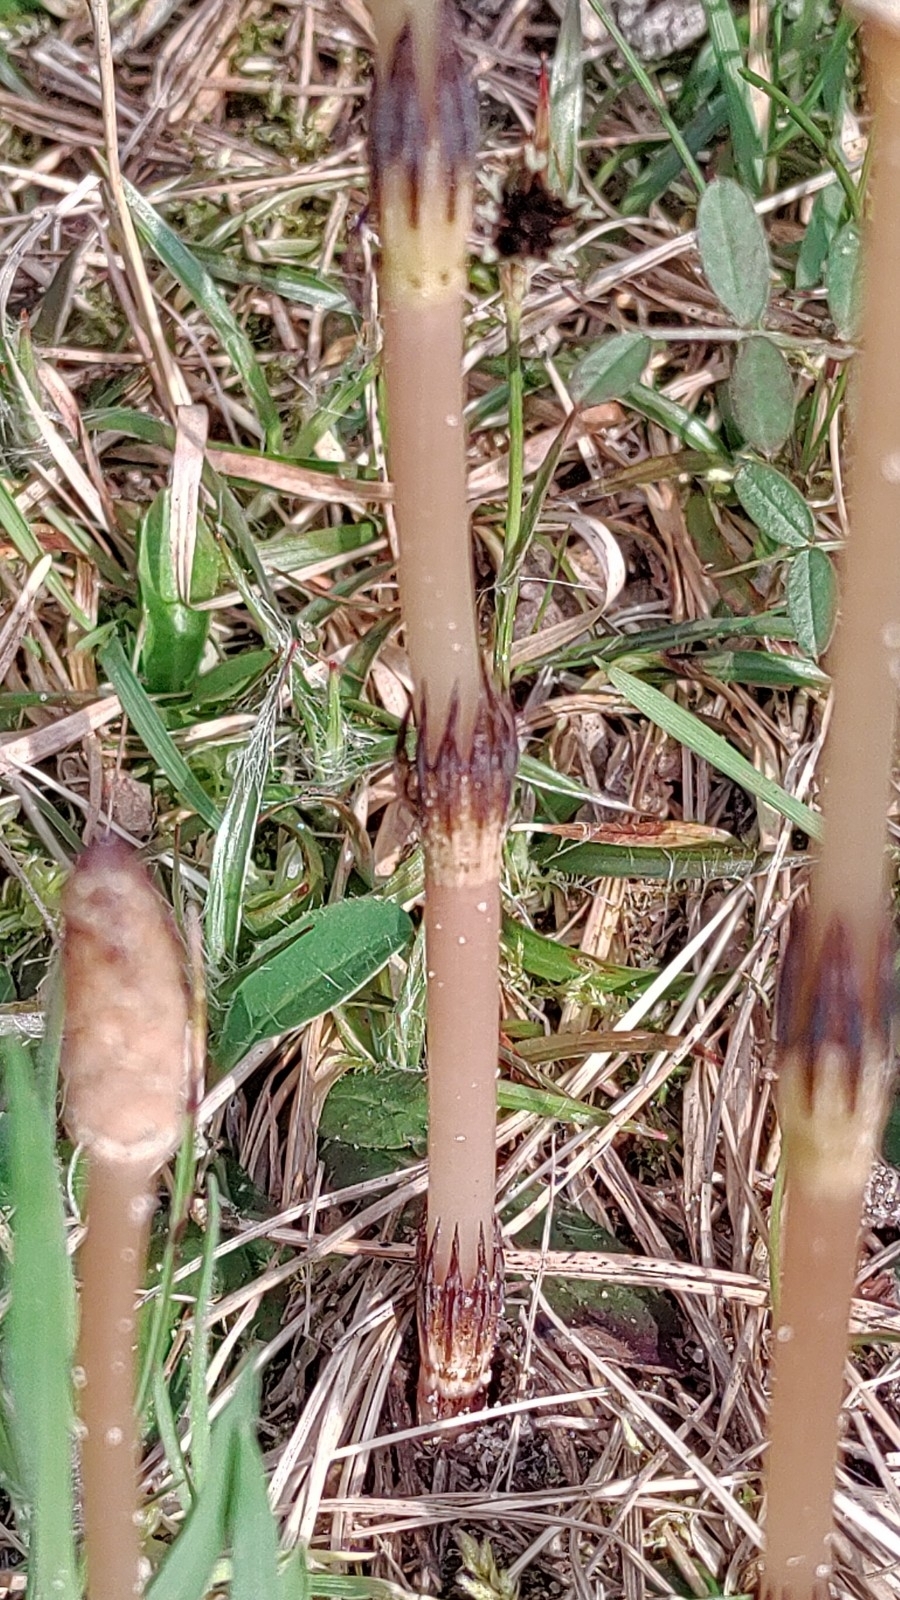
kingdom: Plantae
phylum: Tracheophyta
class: Polypodiopsida
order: Equisetales
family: Equisetaceae
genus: Equisetum
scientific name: Equisetum arvense
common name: Field horsetail
